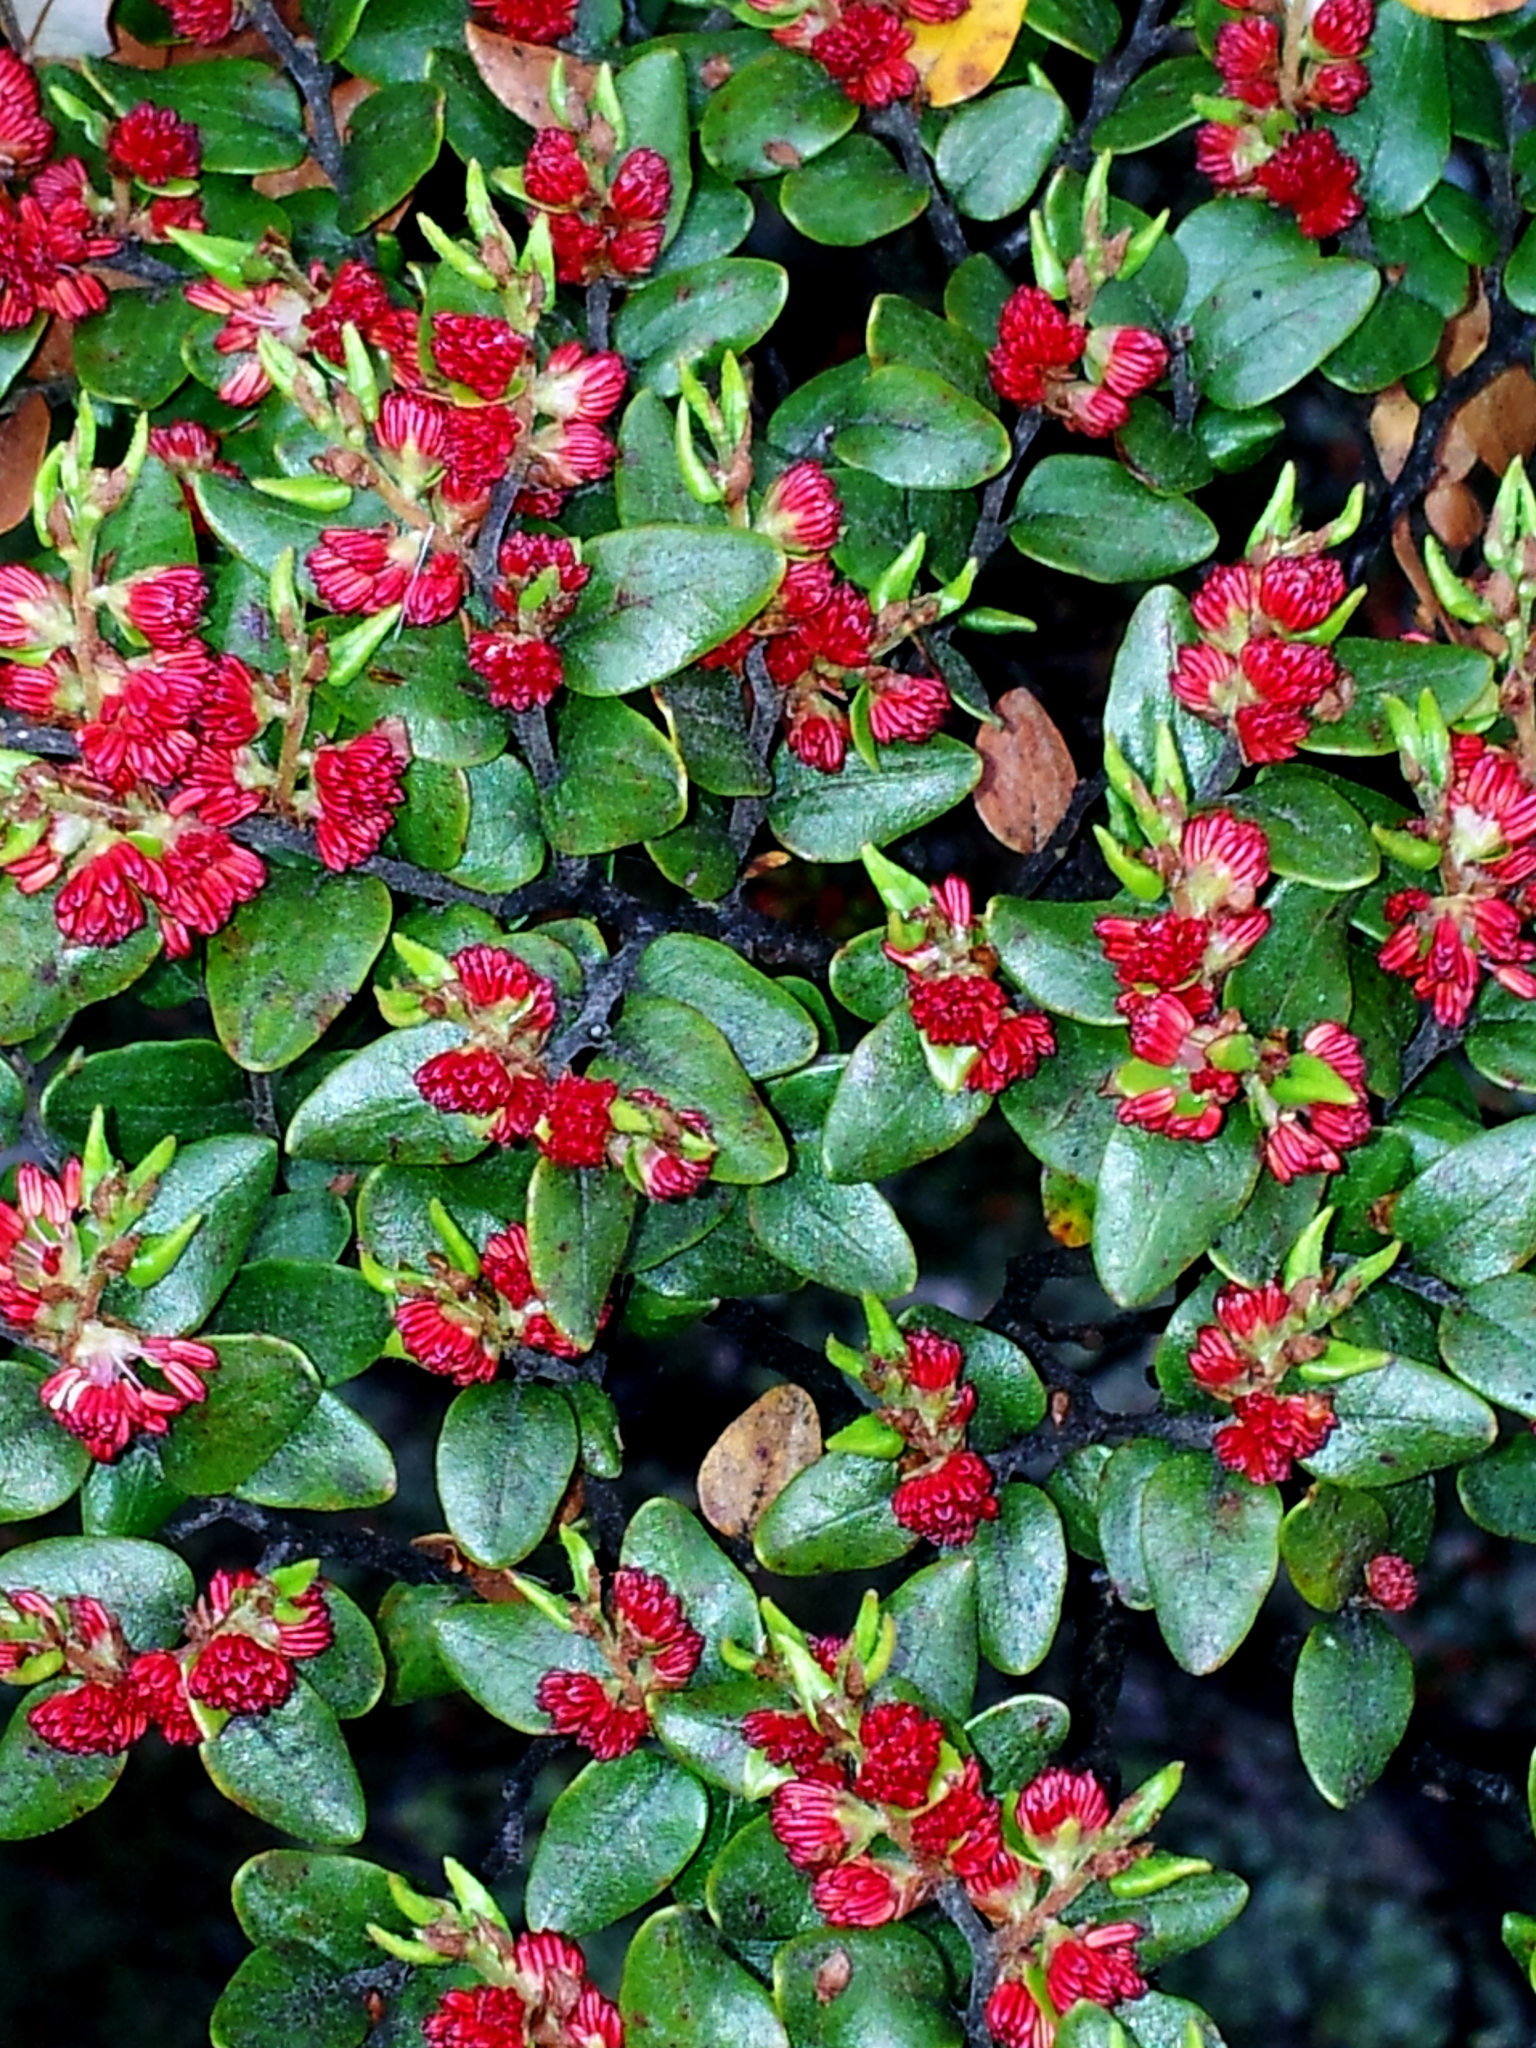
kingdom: Plantae
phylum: Tracheophyta
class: Magnoliopsida
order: Fagales
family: Nothofagaceae
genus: Nothofagus
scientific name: Nothofagus cliffortioides
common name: Mountain beech
